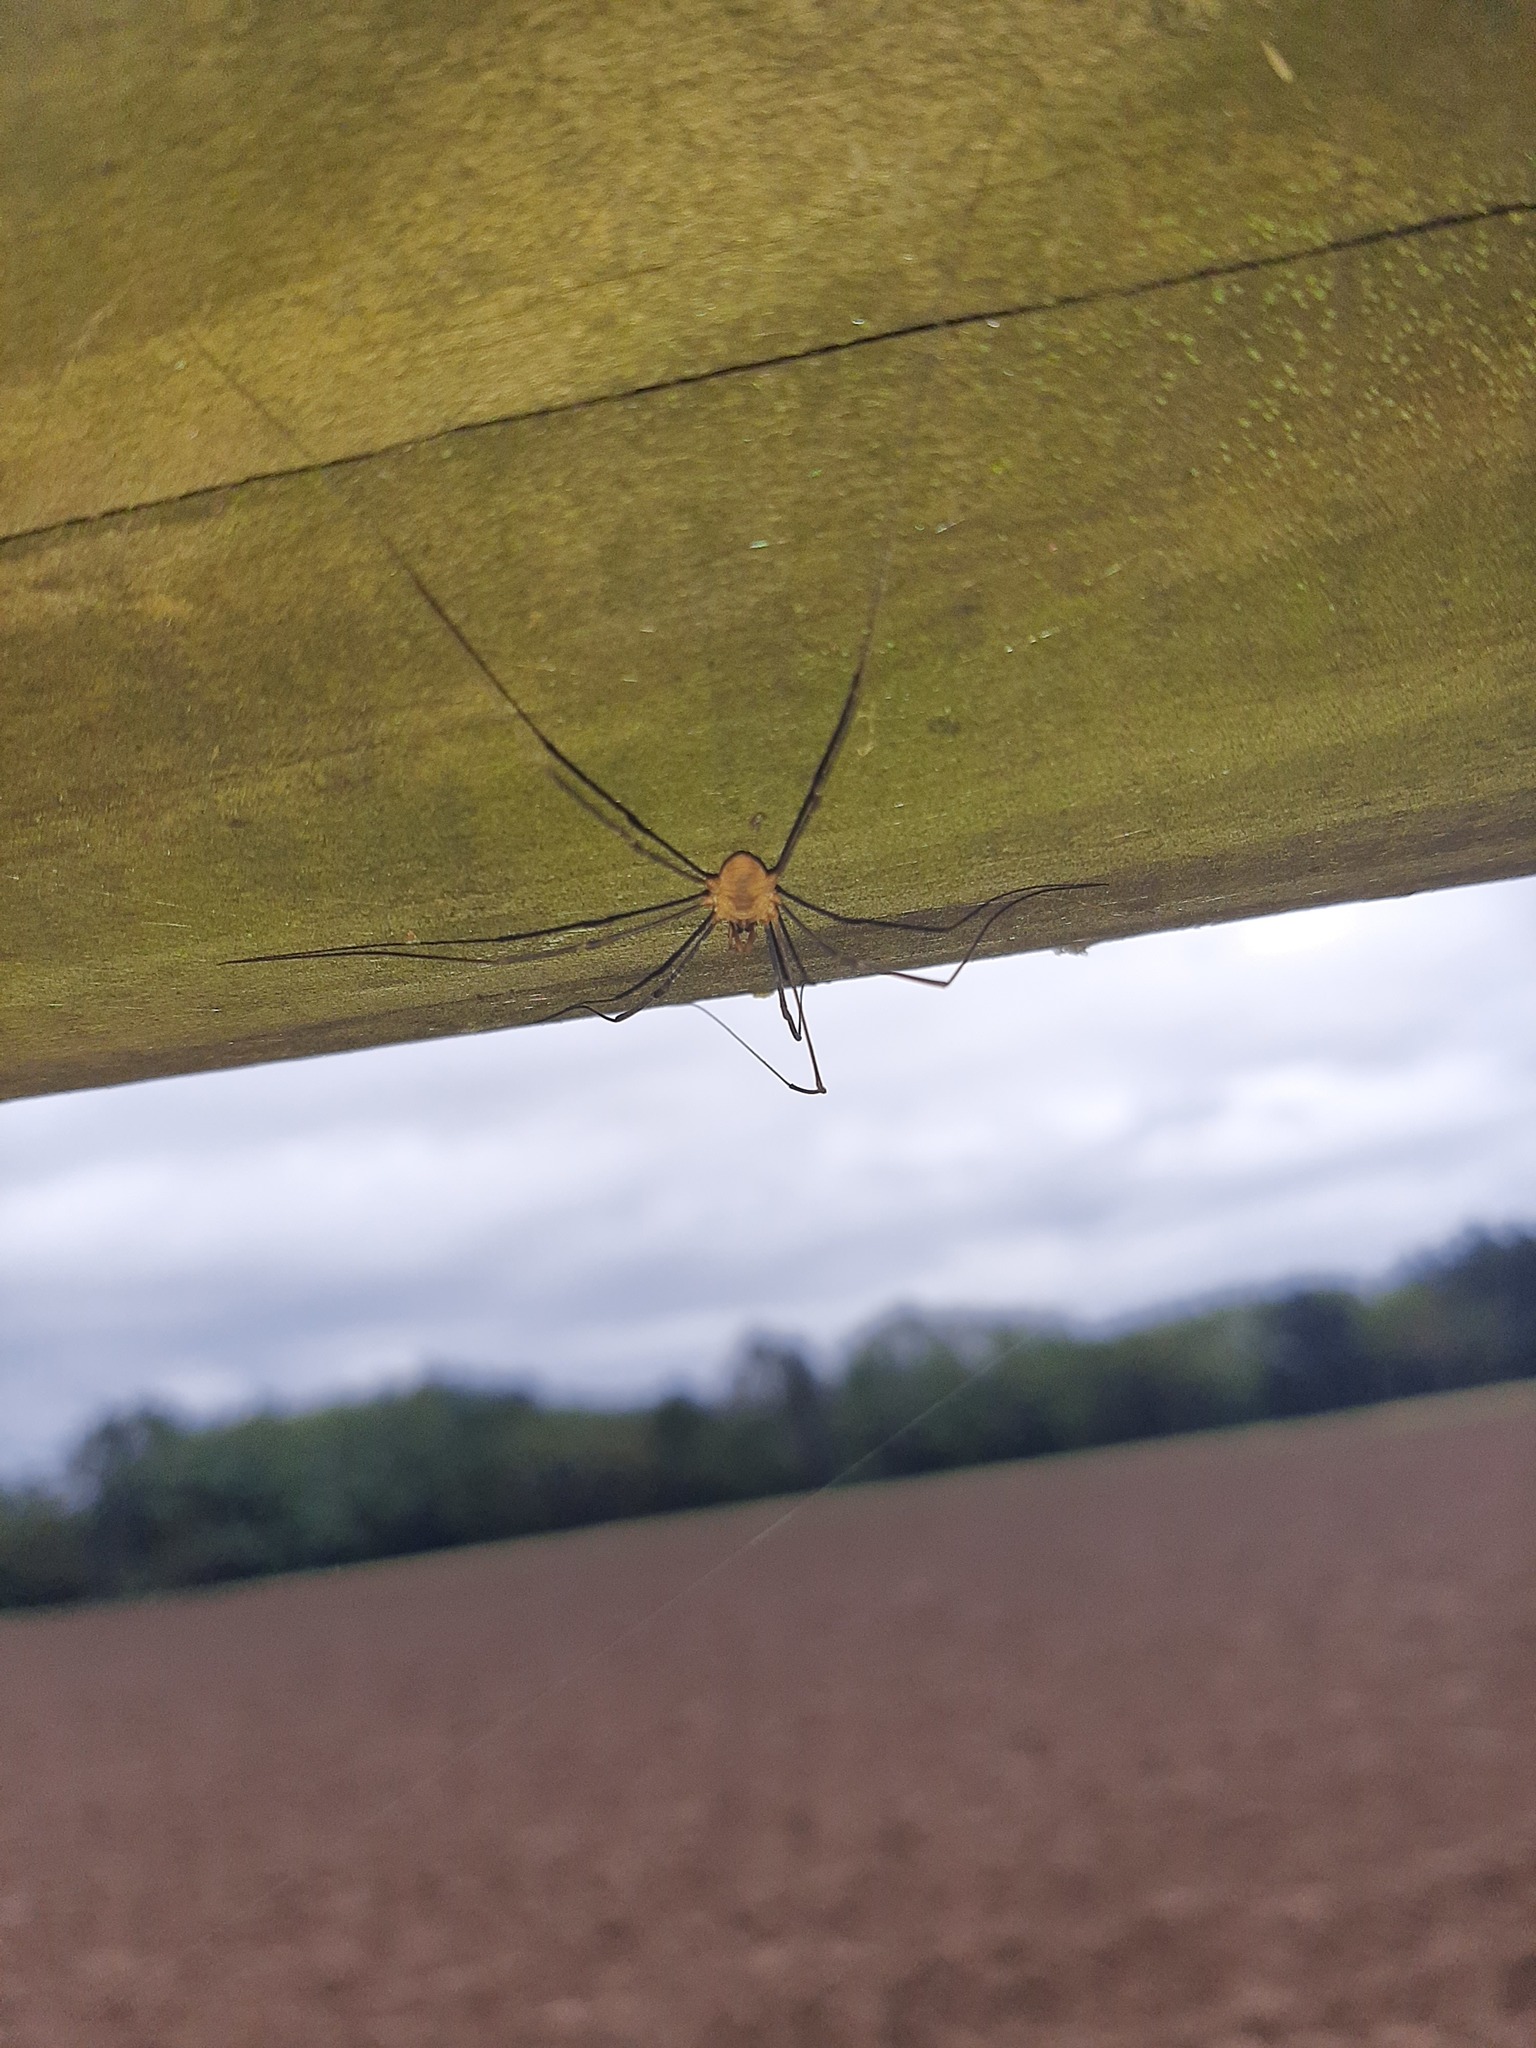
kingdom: Animalia
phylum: Arthropoda
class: Arachnida
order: Opiliones
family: Phalangiidae
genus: Phalangium
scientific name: Phalangium opilio
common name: Daddy longleg
